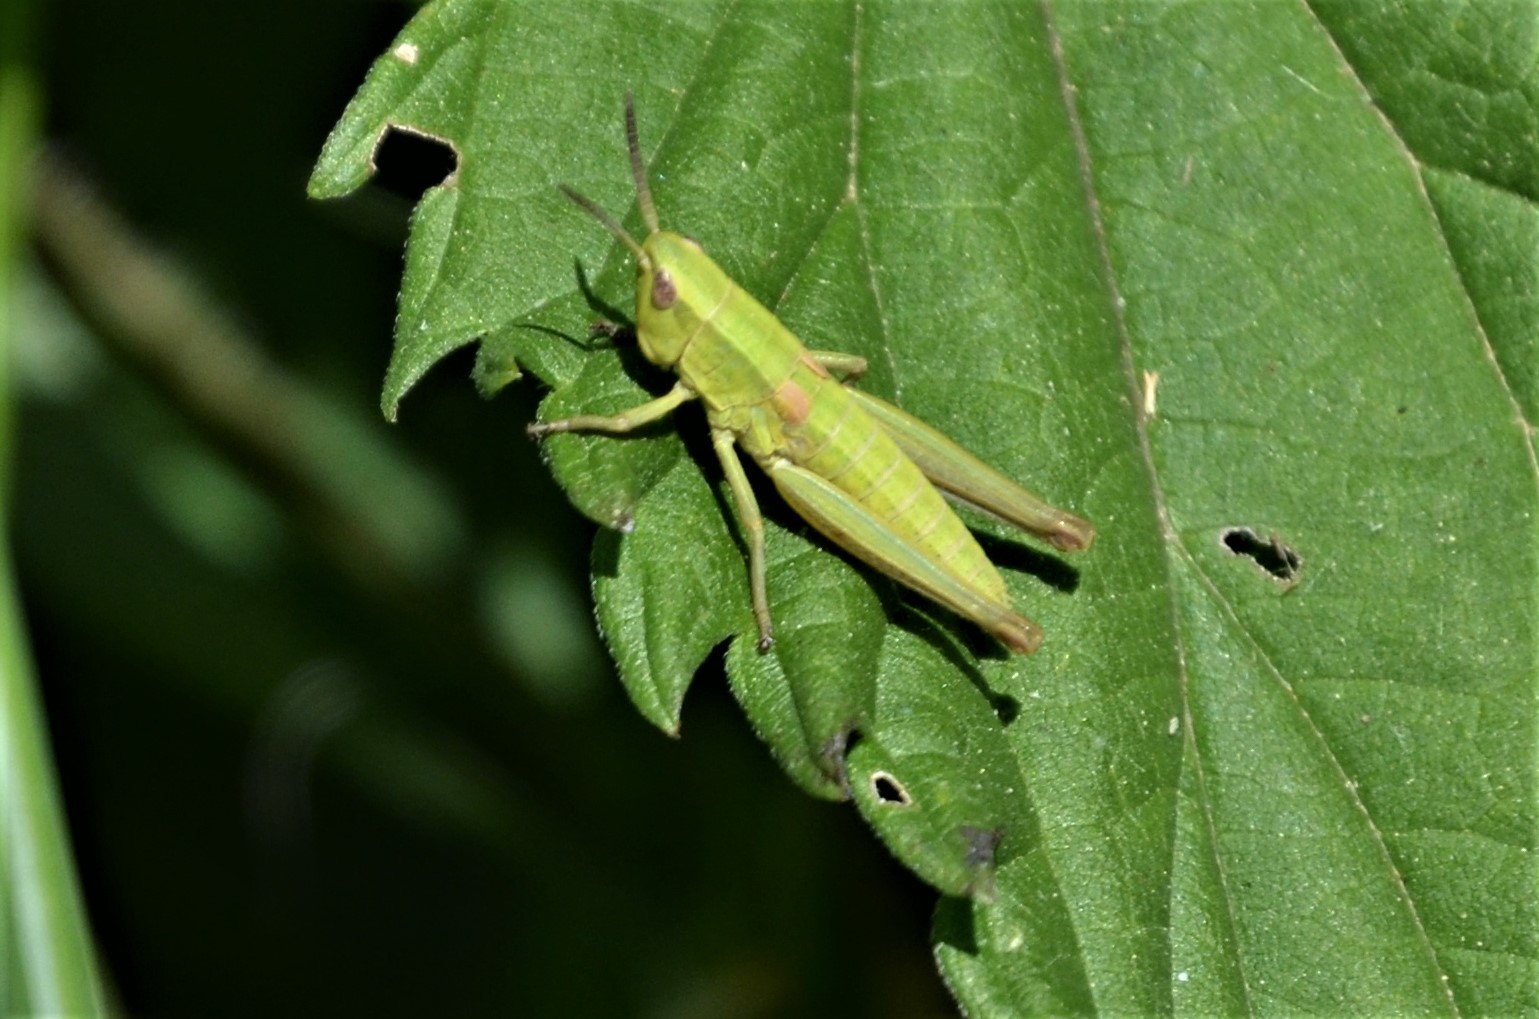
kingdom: Animalia
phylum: Arthropoda
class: Insecta
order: Orthoptera
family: Acrididae
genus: Euthystira
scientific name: Euthystira brachyptera
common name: Small gold grasshopper
